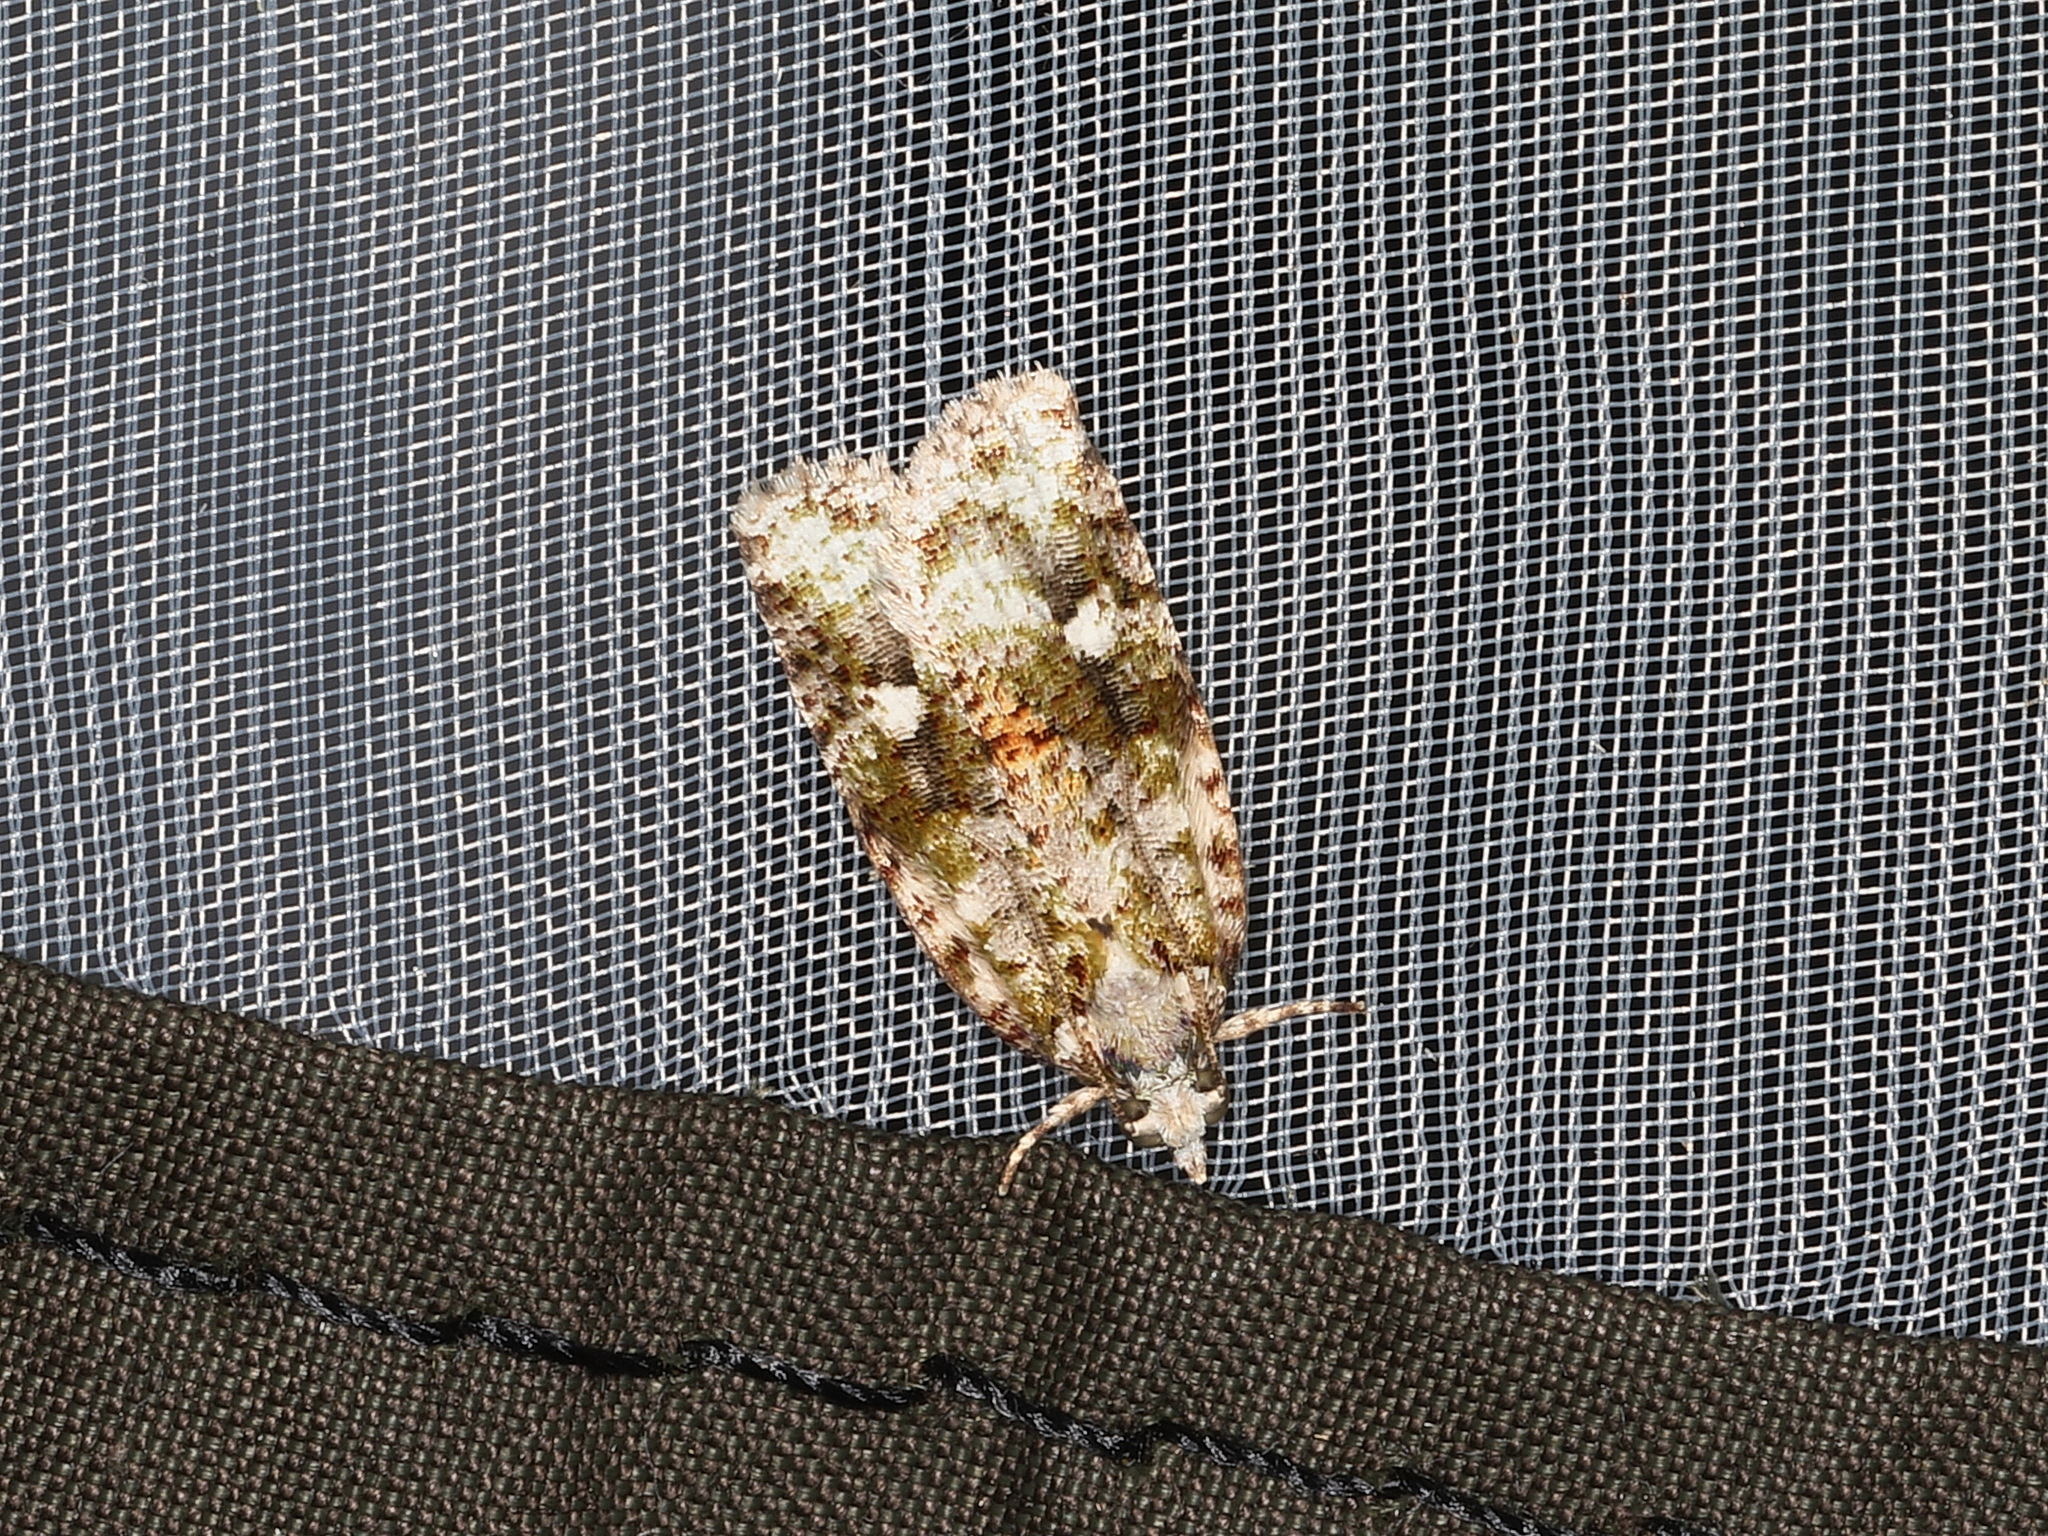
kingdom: Animalia
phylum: Arthropoda
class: Insecta
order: Lepidoptera
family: Tortricidae
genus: Acropolitis
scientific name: Acropolitis hedista
